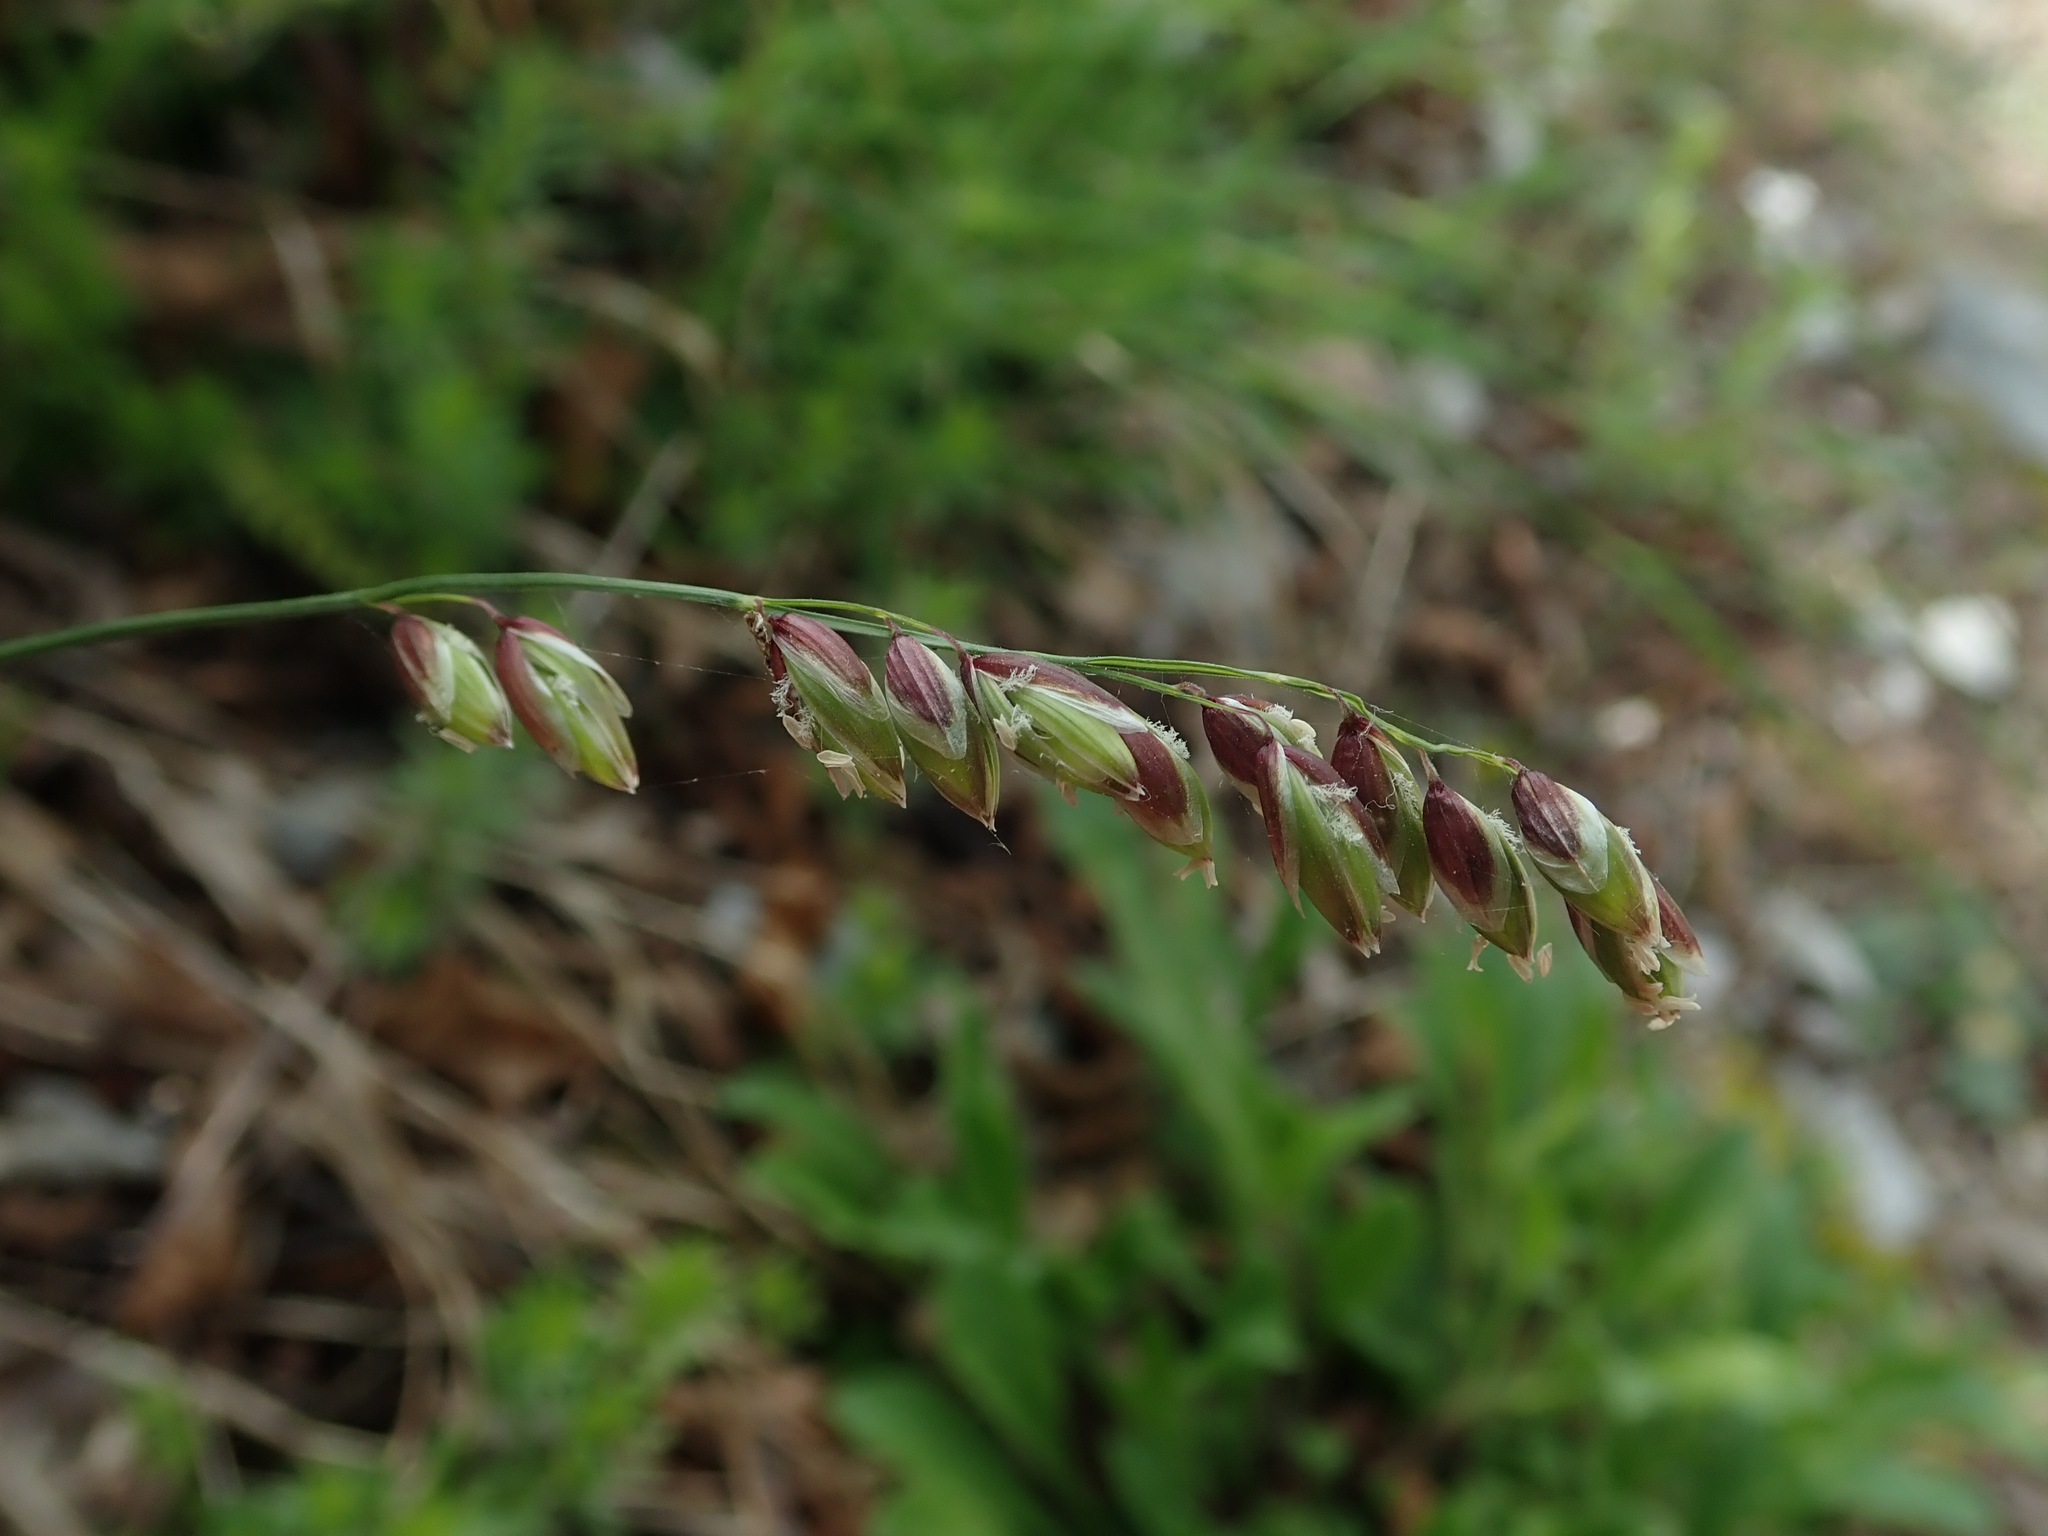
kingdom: Plantae
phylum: Tracheophyta
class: Liliopsida
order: Poales
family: Poaceae
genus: Melica
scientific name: Melica nutans
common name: Mountain melick
